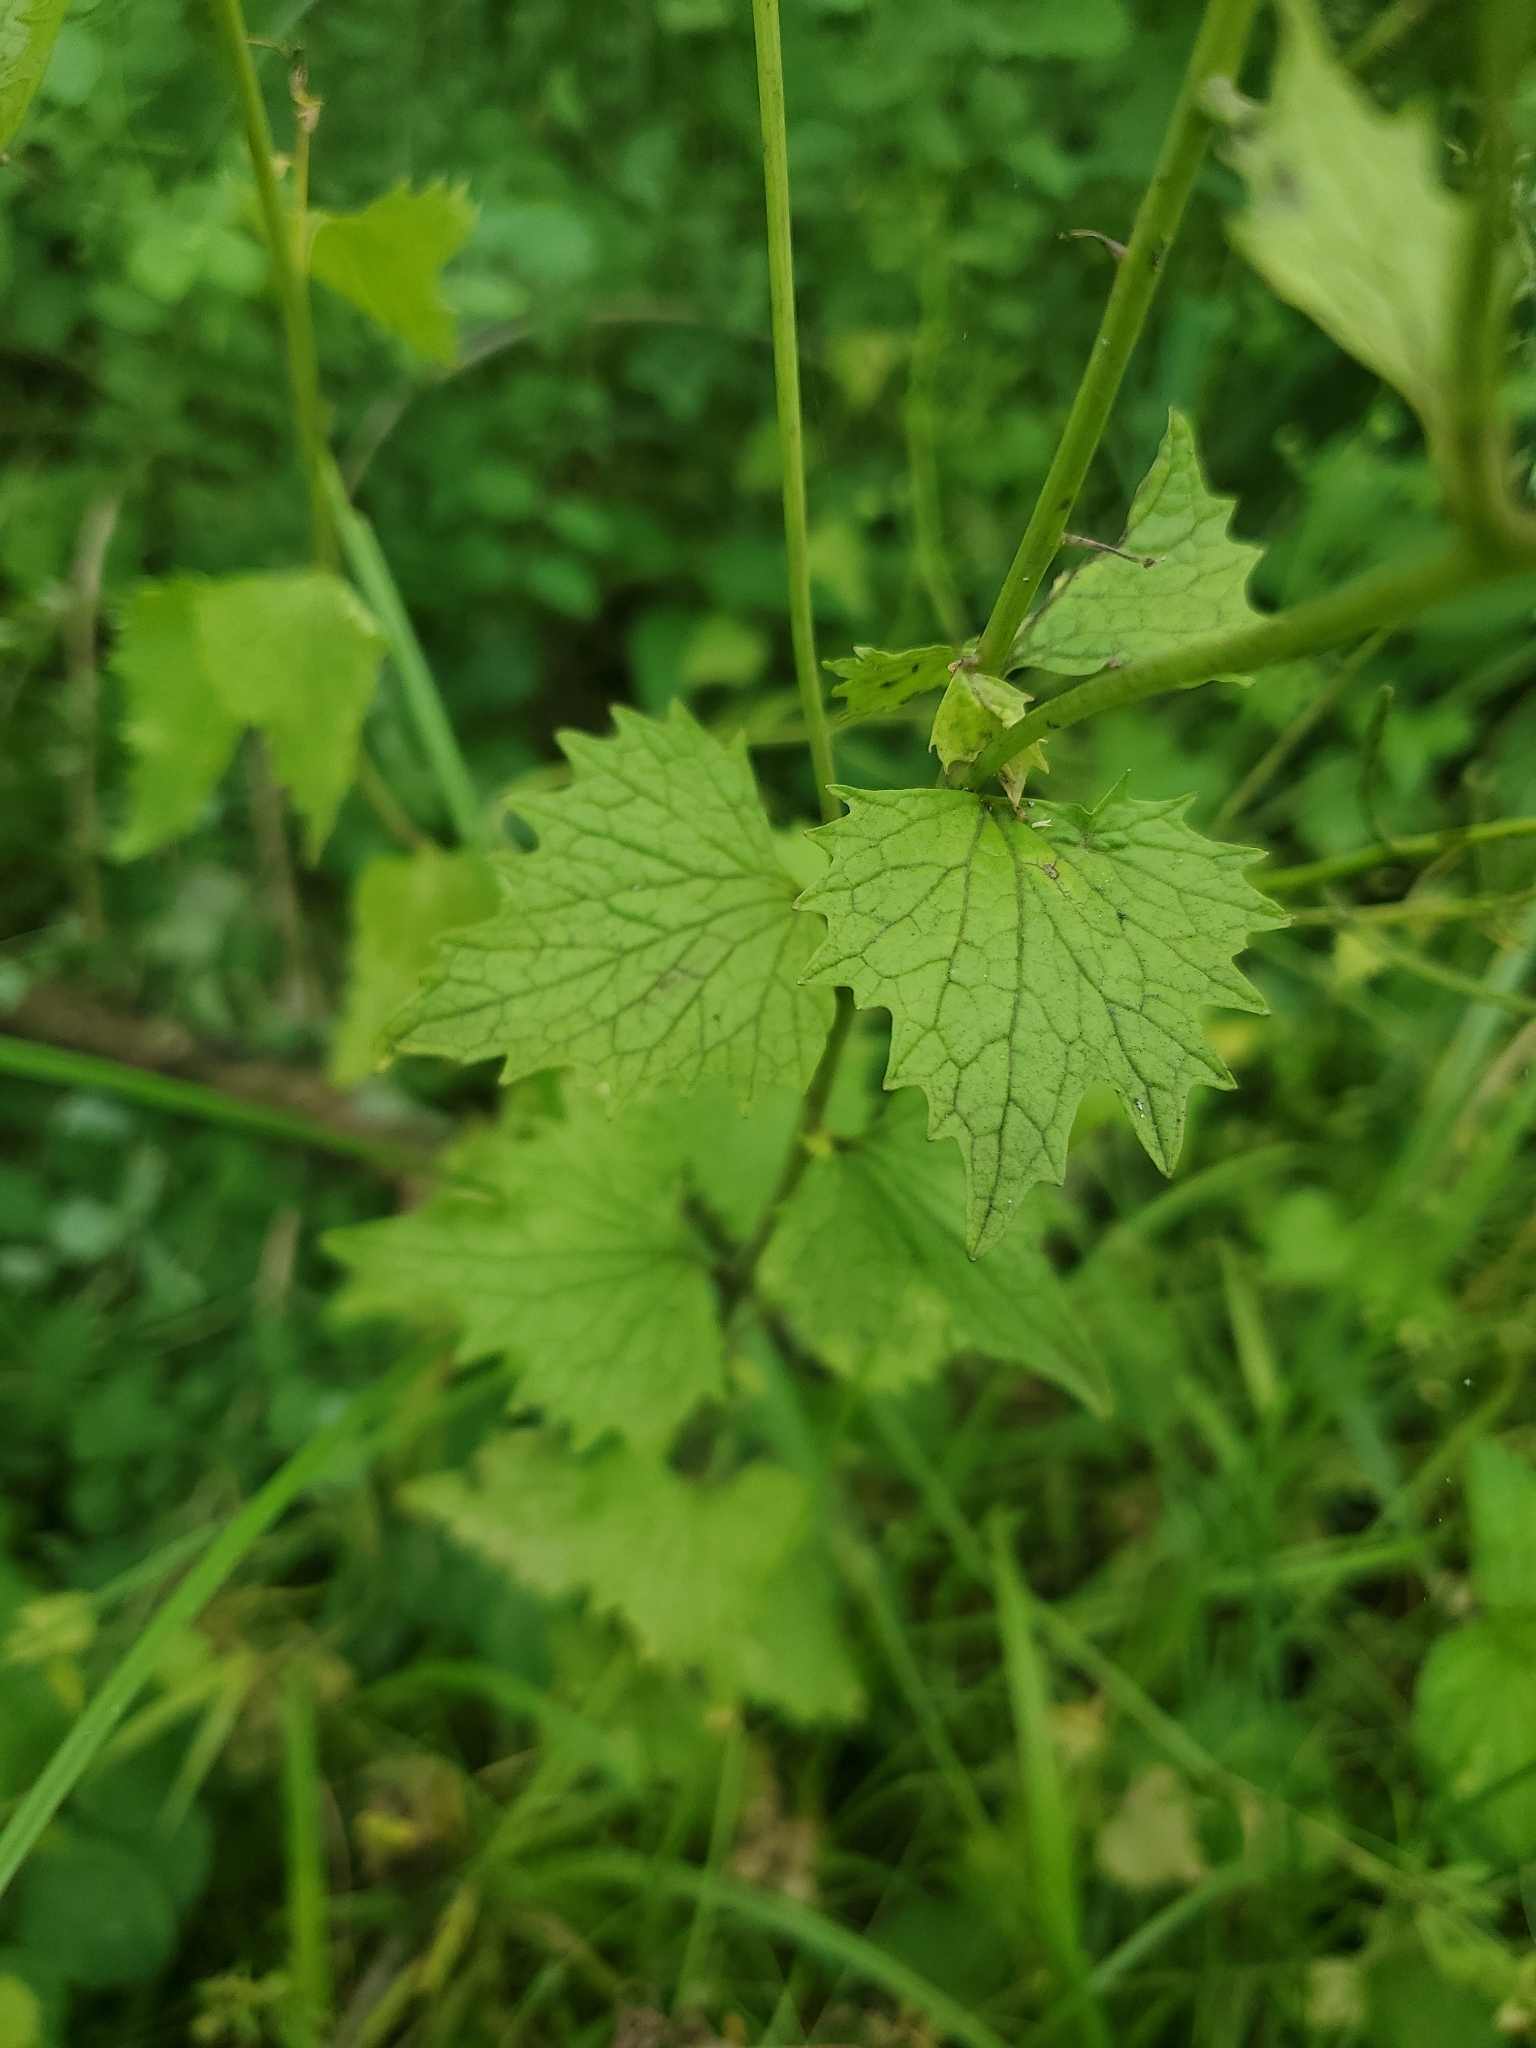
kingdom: Plantae
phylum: Tracheophyta
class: Magnoliopsida
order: Brassicales
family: Brassicaceae
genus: Alliaria
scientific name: Alliaria petiolata
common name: Garlic mustard
